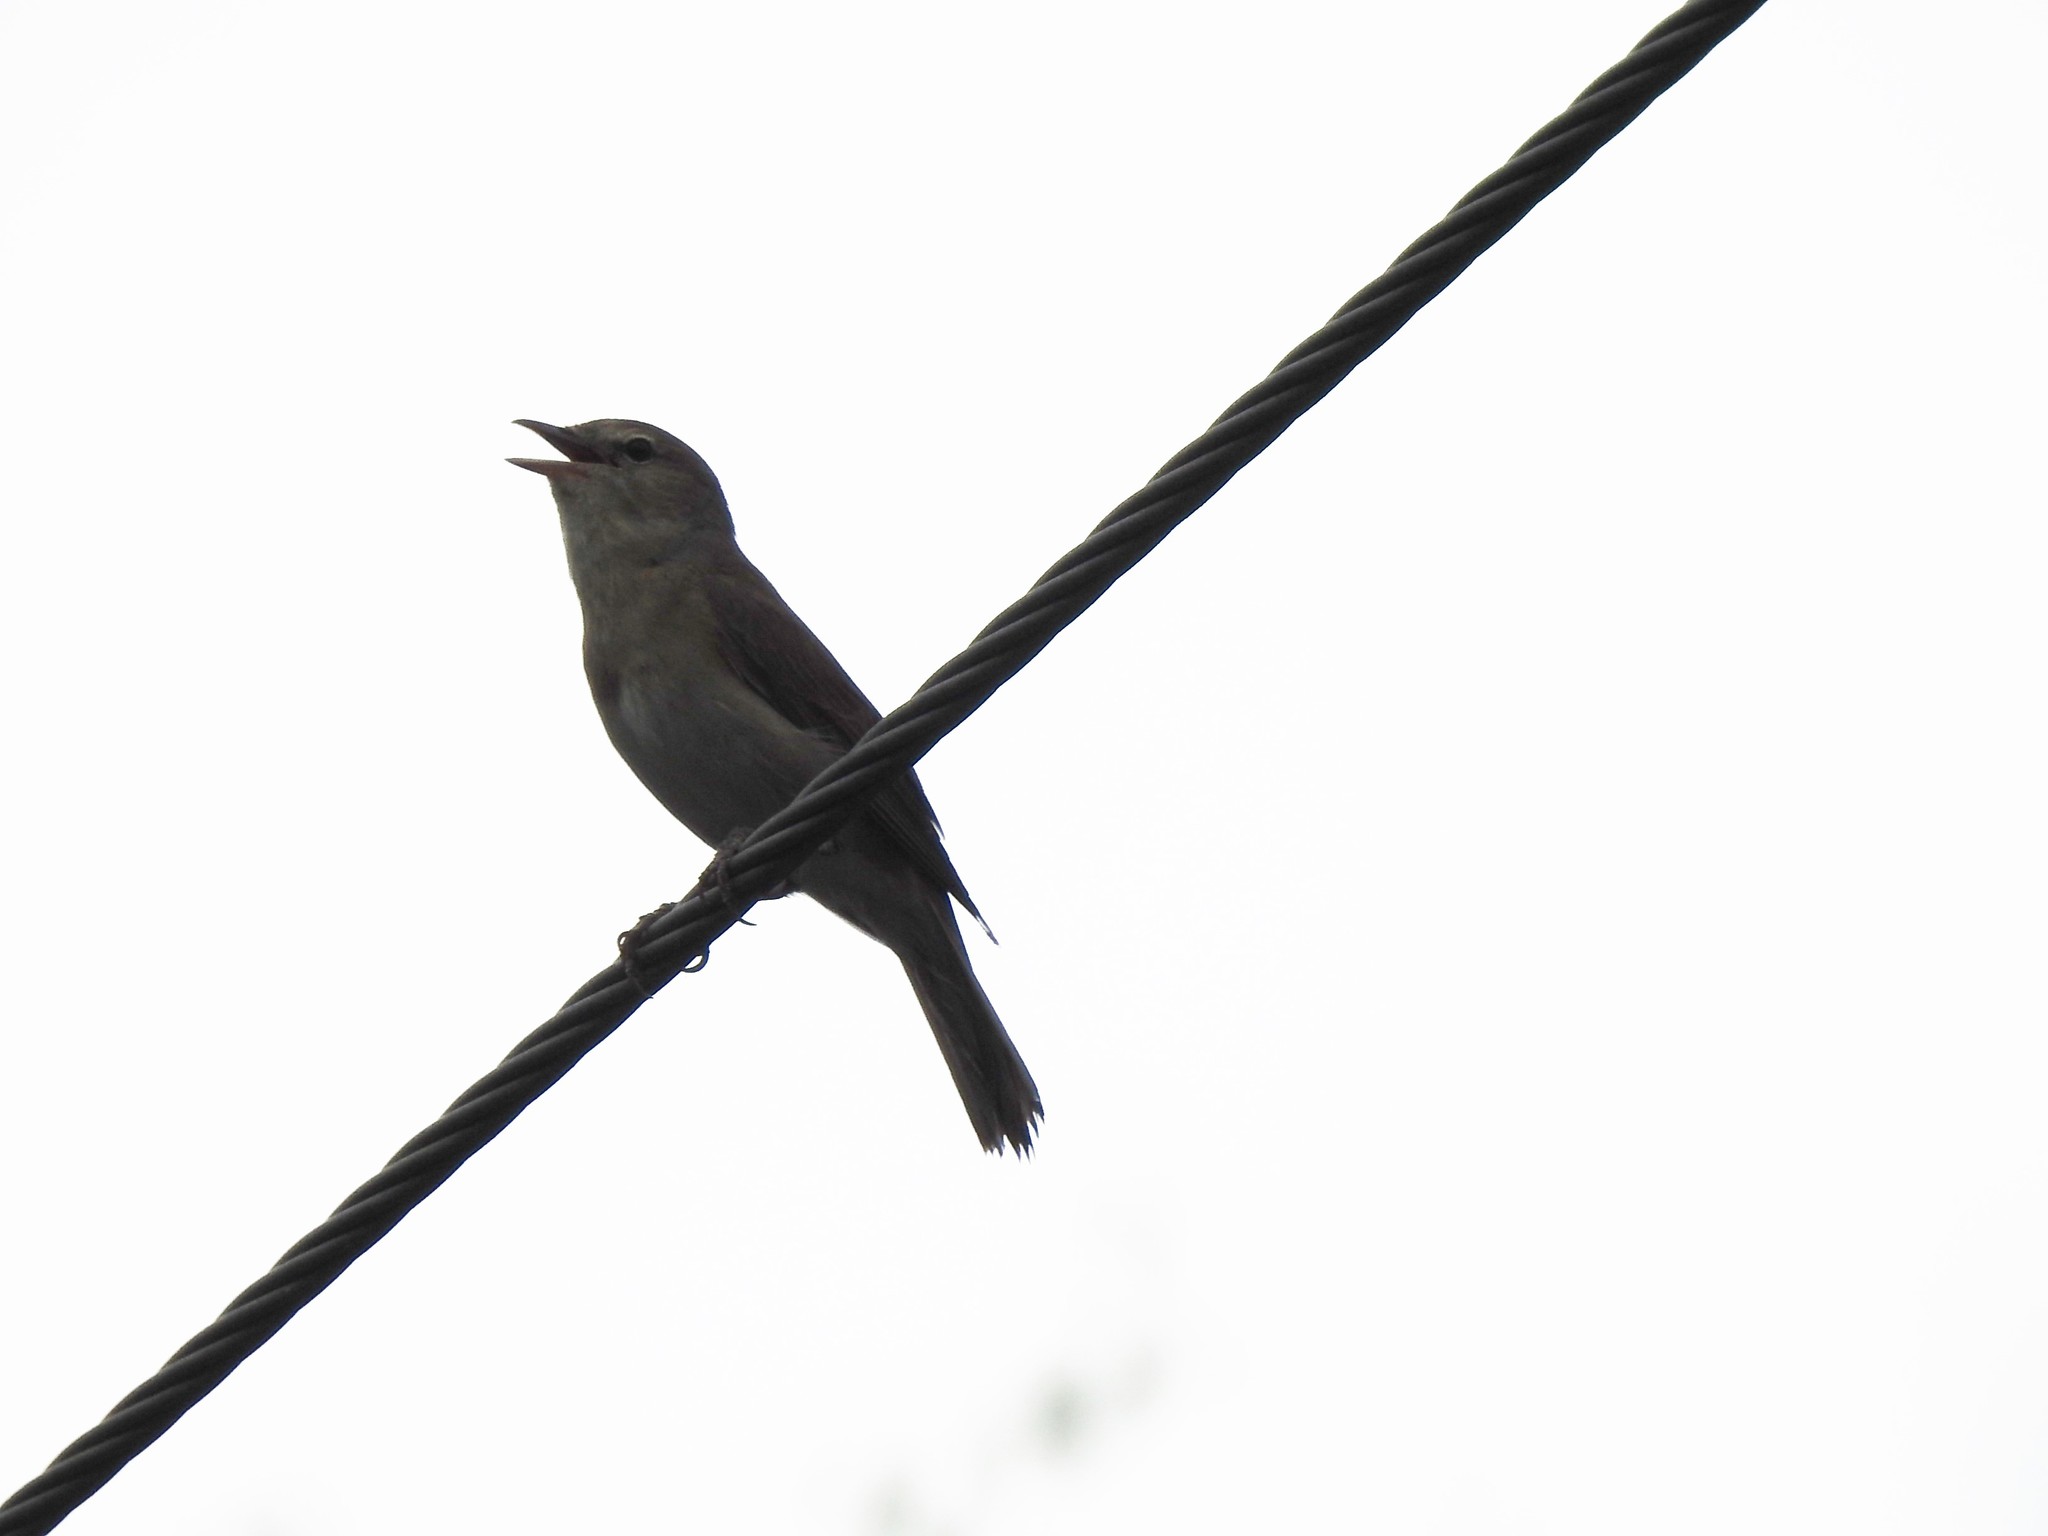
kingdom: Animalia
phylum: Chordata
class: Aves
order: Passeriformes
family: Sylviidae
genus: Sylvia
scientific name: Sylvia borin
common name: Garden warbler
